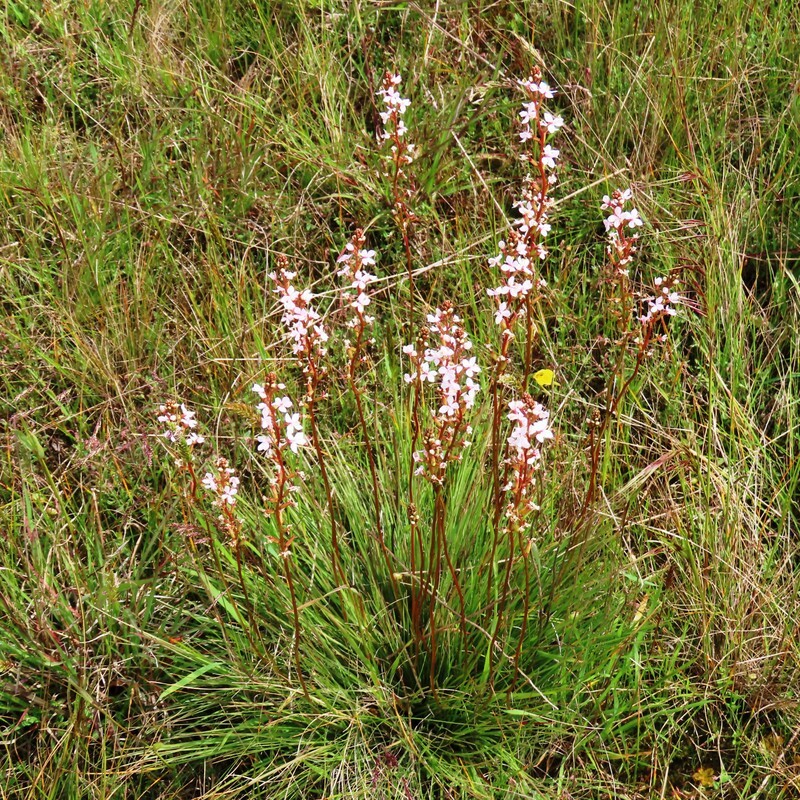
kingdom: Plantae
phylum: Tracheophyta
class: Magnoliopsida
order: Asterales
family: Stylidiaceae
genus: Stylidium
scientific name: Stylidium graminifolium
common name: Grass triggerplant
